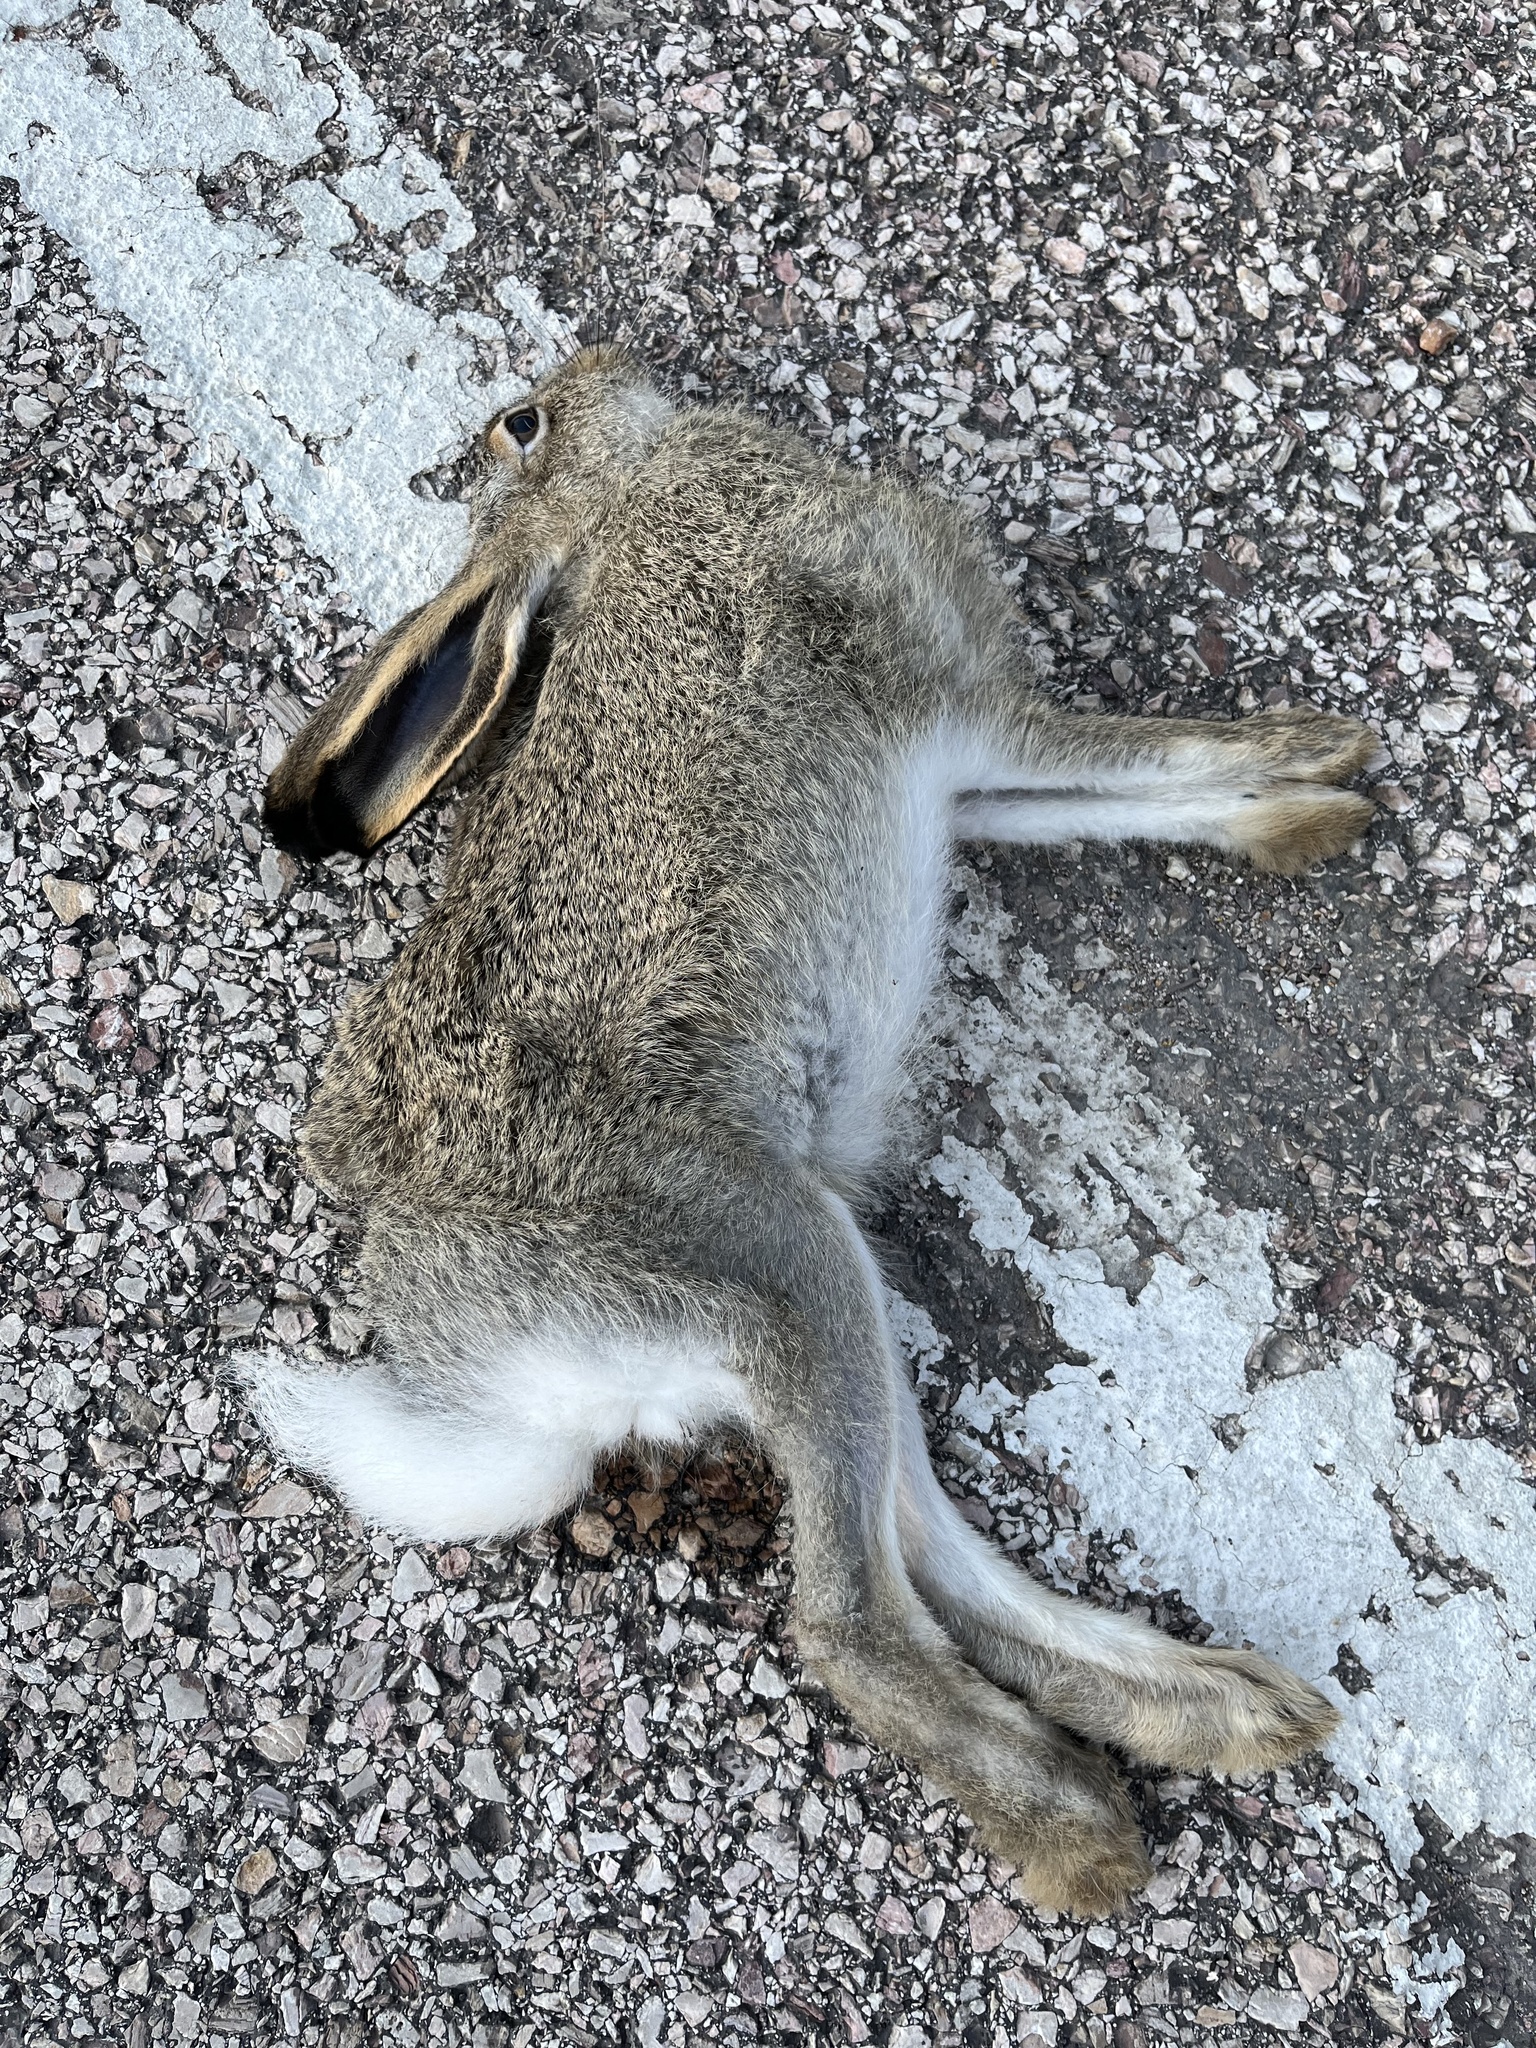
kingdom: Animalia
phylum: Chordata
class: Mammalia
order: Lagomorpha
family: Leporidae
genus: Lepus
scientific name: Lepus townsendii
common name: White-tailed jackrabbit
